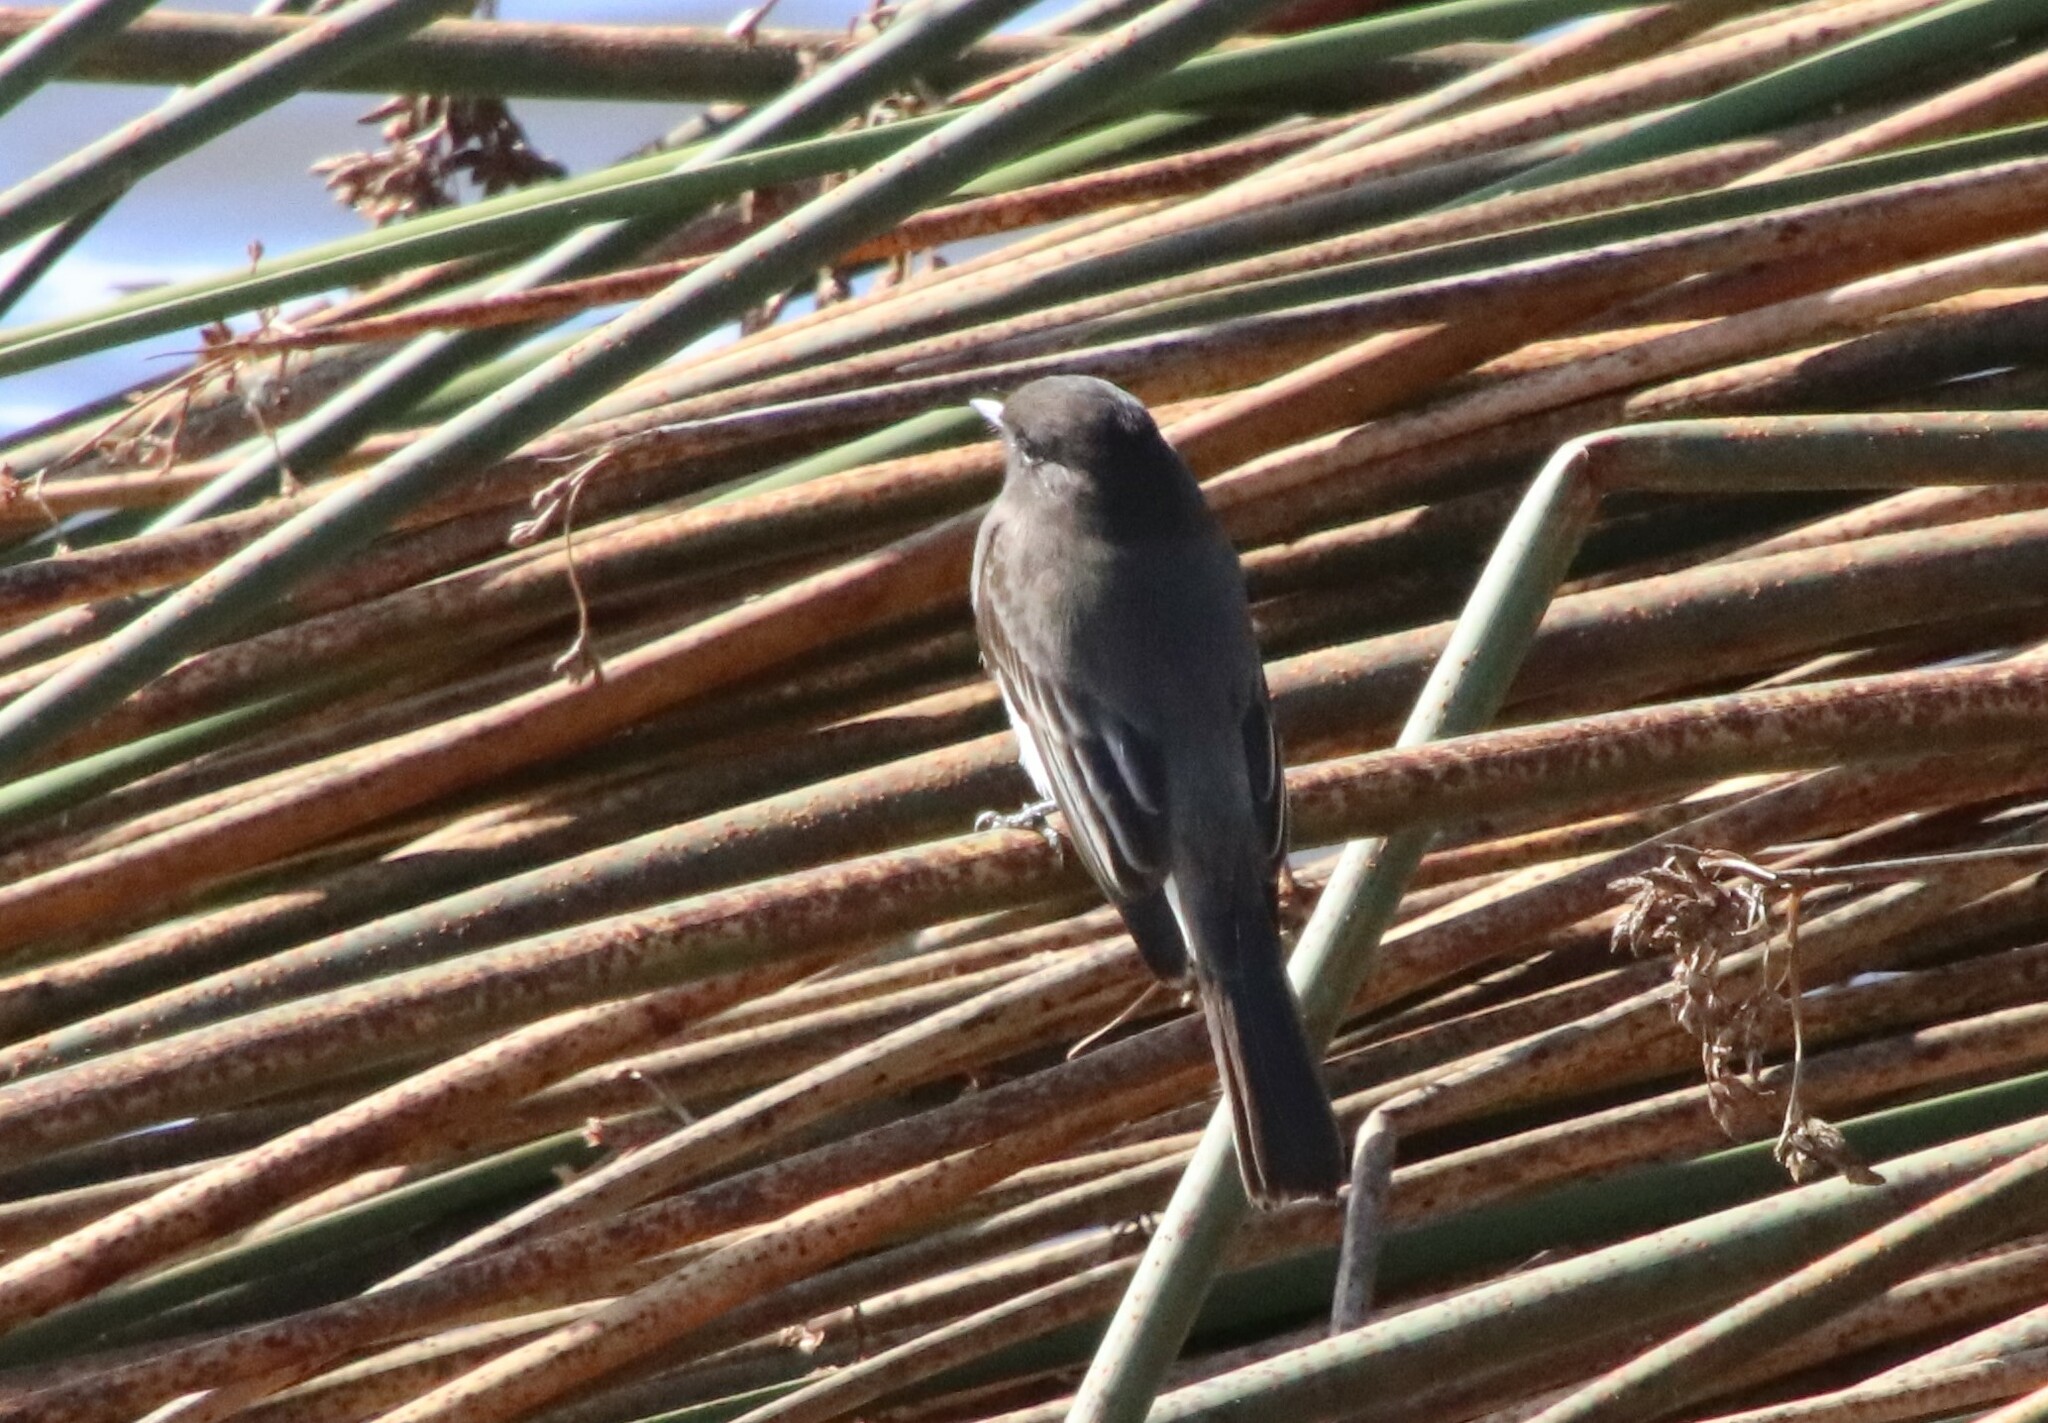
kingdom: Animalia
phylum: Chordata
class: Aves
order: Passeriformes
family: Tyrannidae
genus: Sayornis
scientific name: Sayornis nigricans
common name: Black phoebe
